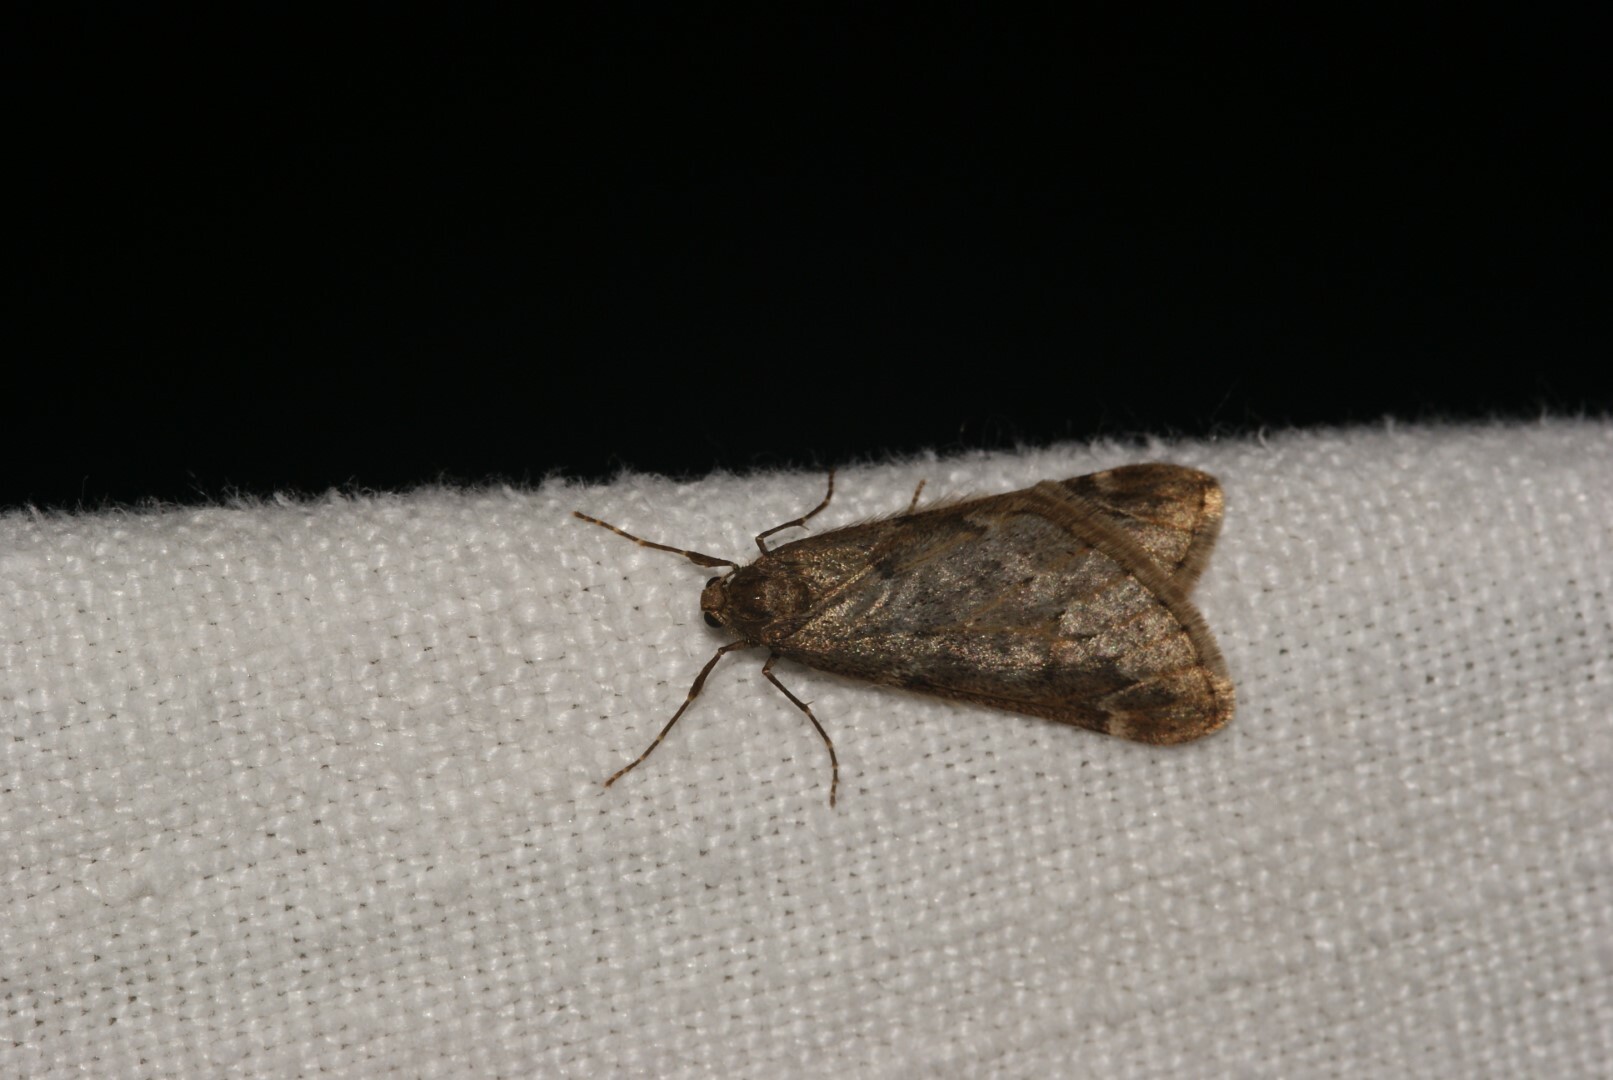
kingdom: Animalia
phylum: Arthropoda
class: Insecta
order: Lepidoptera
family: Geometridae
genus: Alsophila
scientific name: Alsophila aescularia
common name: March moth
